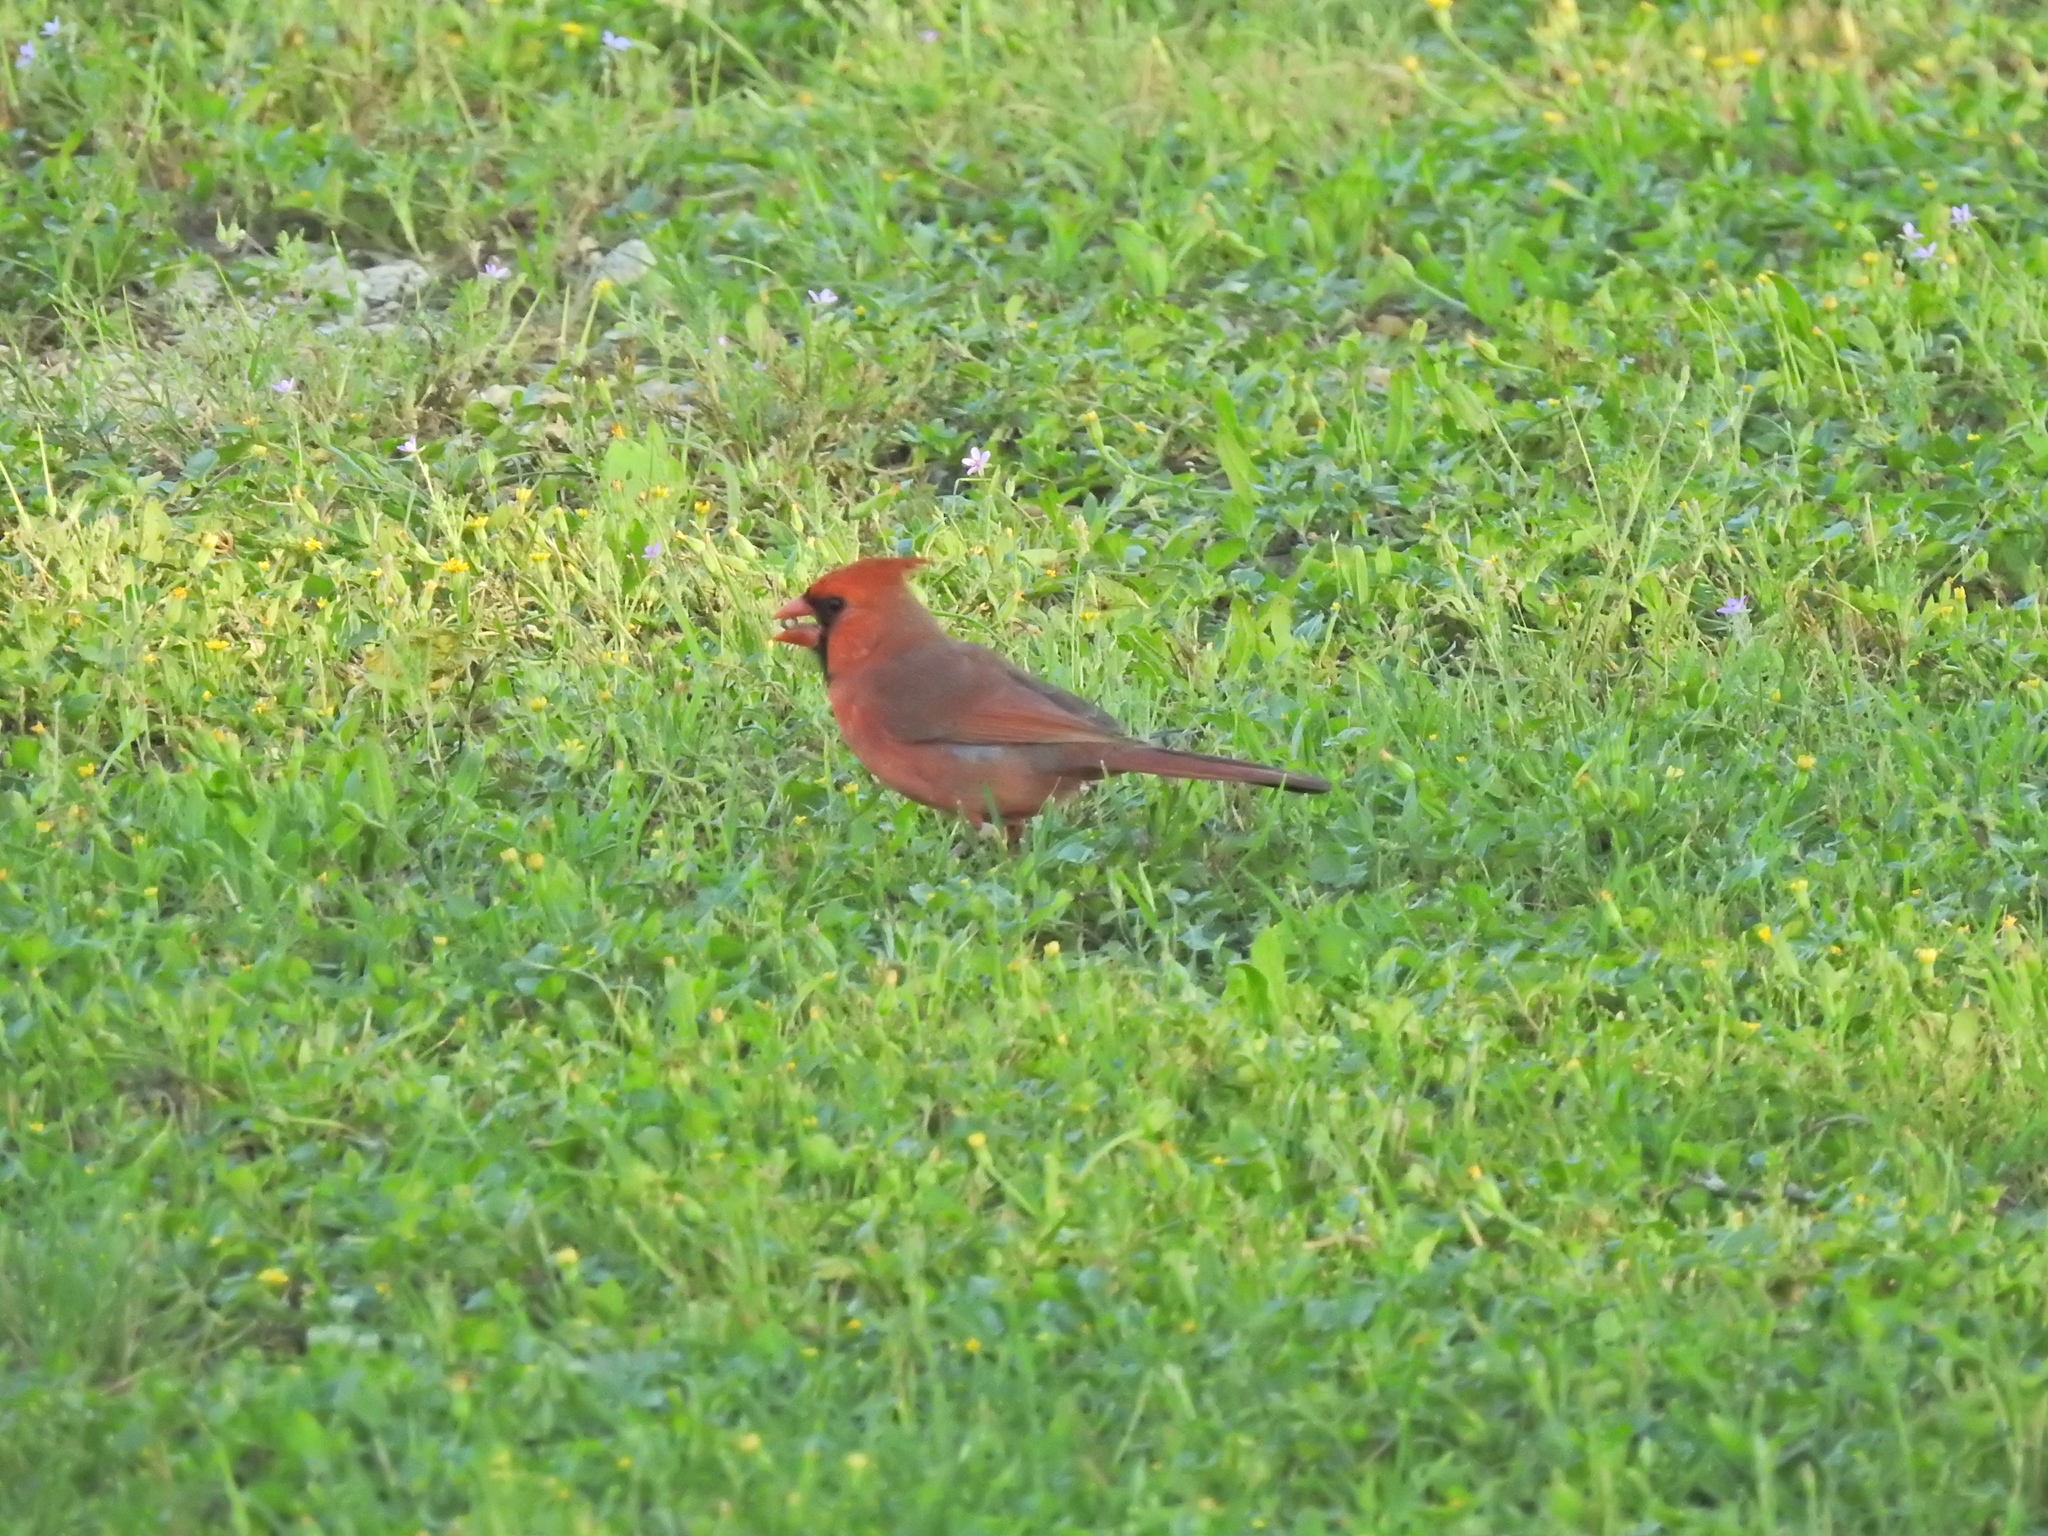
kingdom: Animalia
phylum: Chordata
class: Aves
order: Passeriformes
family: Cardinalidae
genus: Cardinalis
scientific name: Cardinalis cardinalis
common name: Northern cardinal
